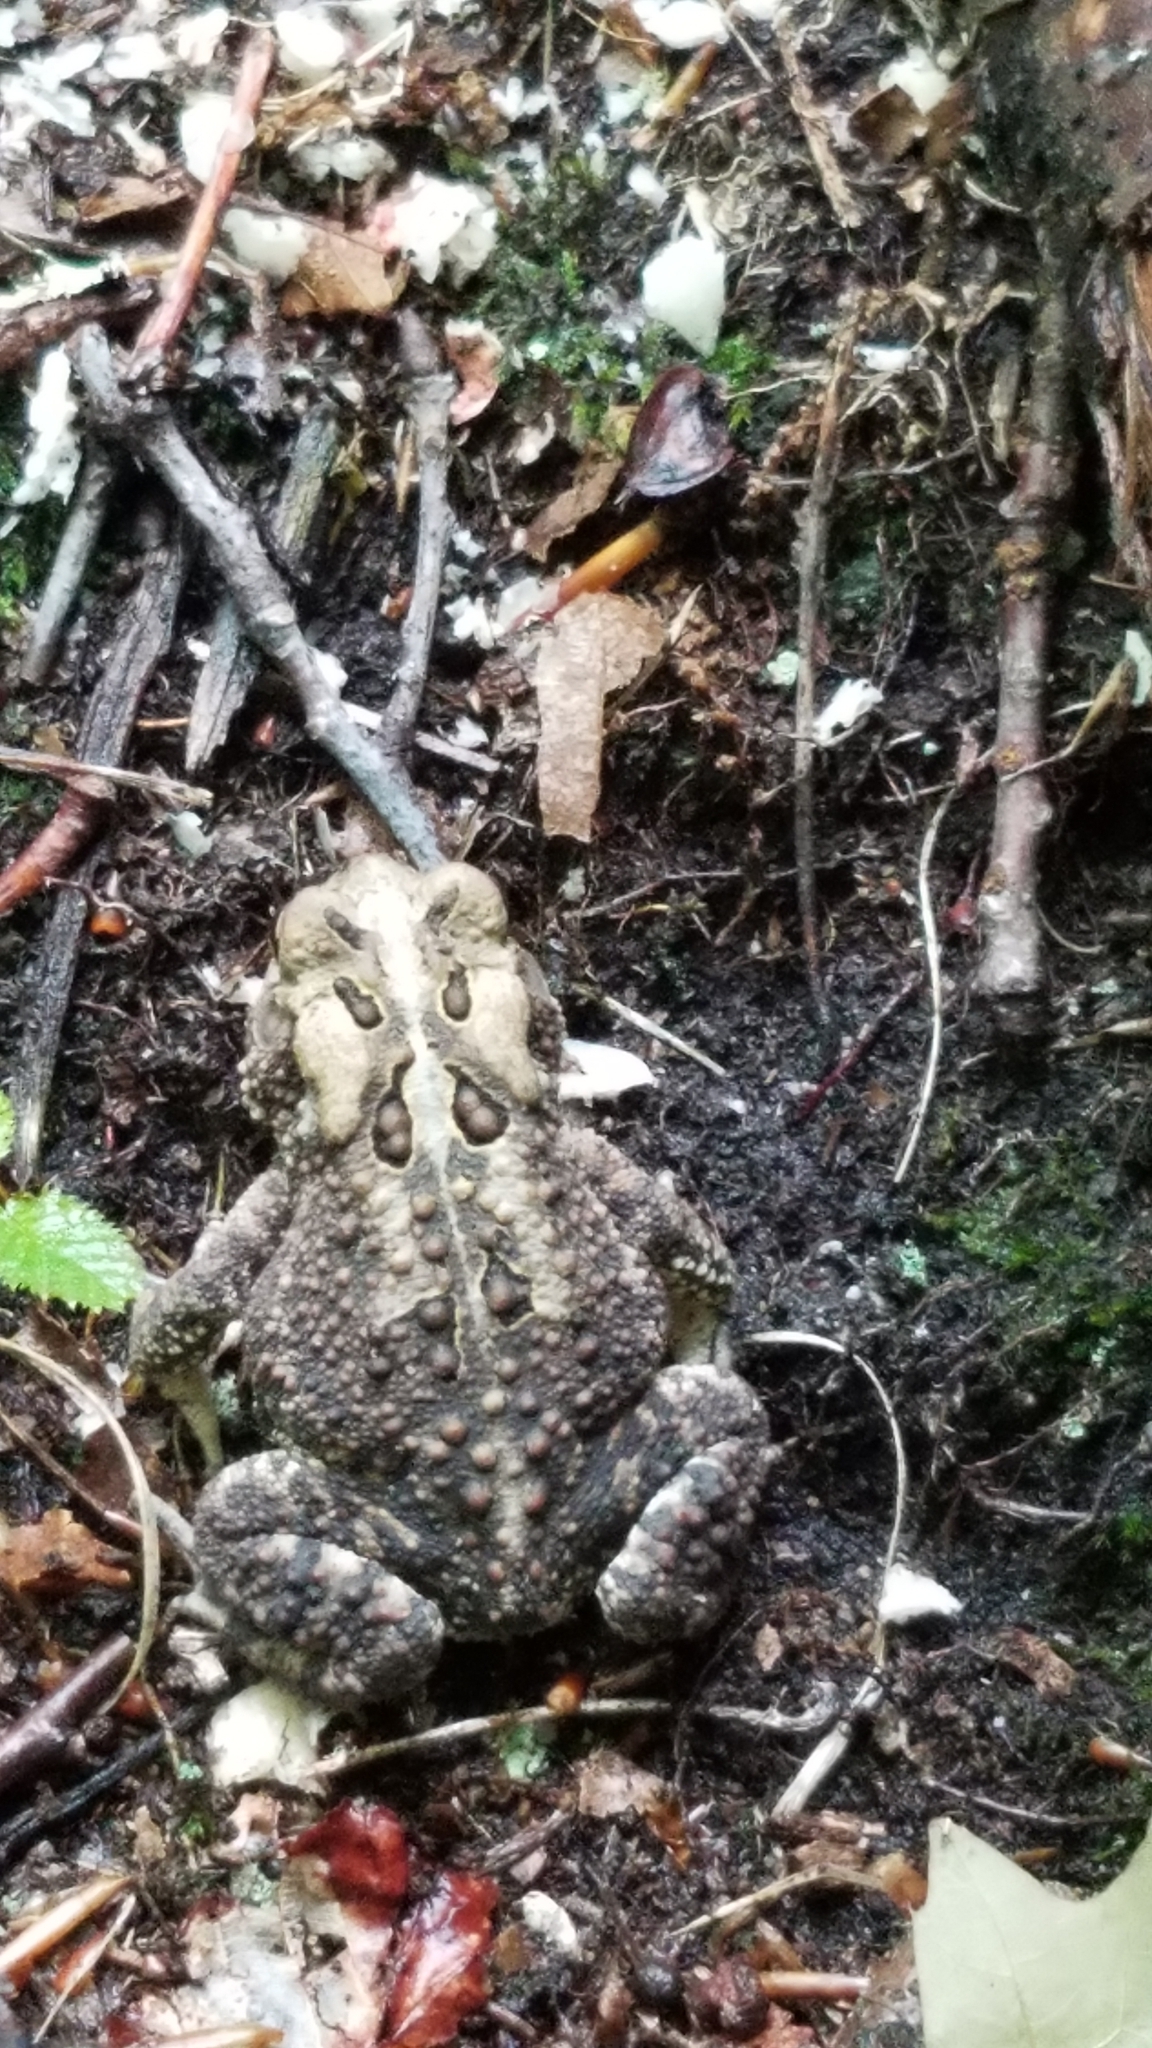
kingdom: Animalia
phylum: Chordata
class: Amphibia
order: Anura
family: Bufonidae
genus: Anaxyrus
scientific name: Anaxyrus americanus
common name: American toad
